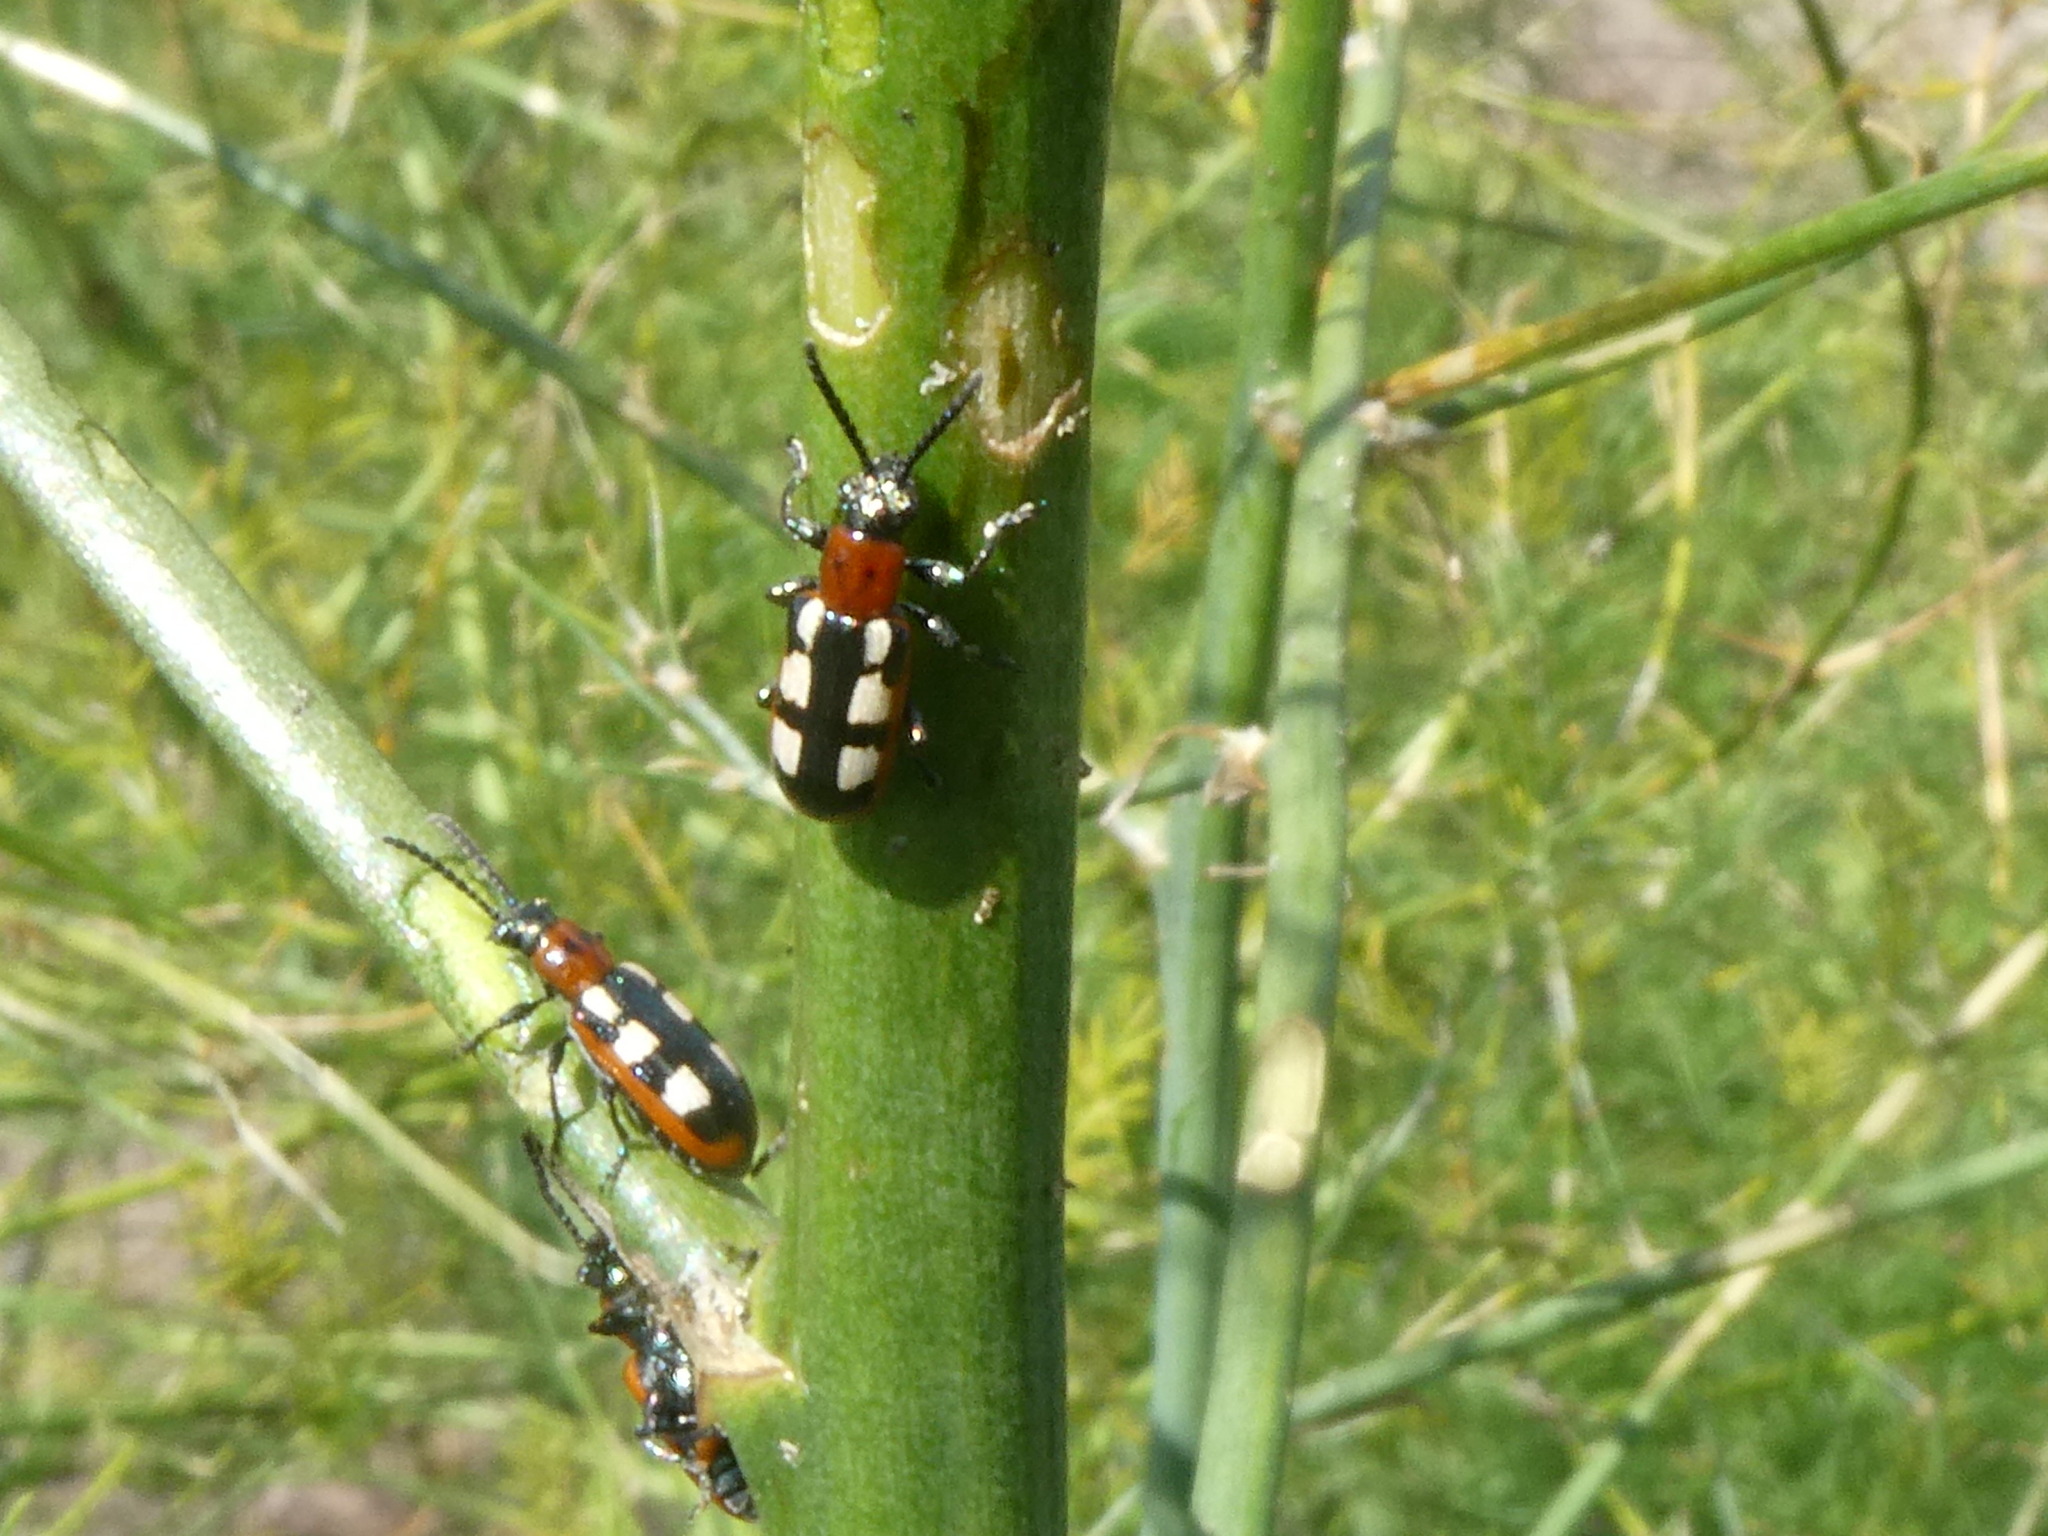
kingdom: Animalia
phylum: Arthropoda
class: Insecta
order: Coleoptera
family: Chrysomelidae
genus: Crioceris
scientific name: Crioceris asparagi
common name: Asparagus beetle
